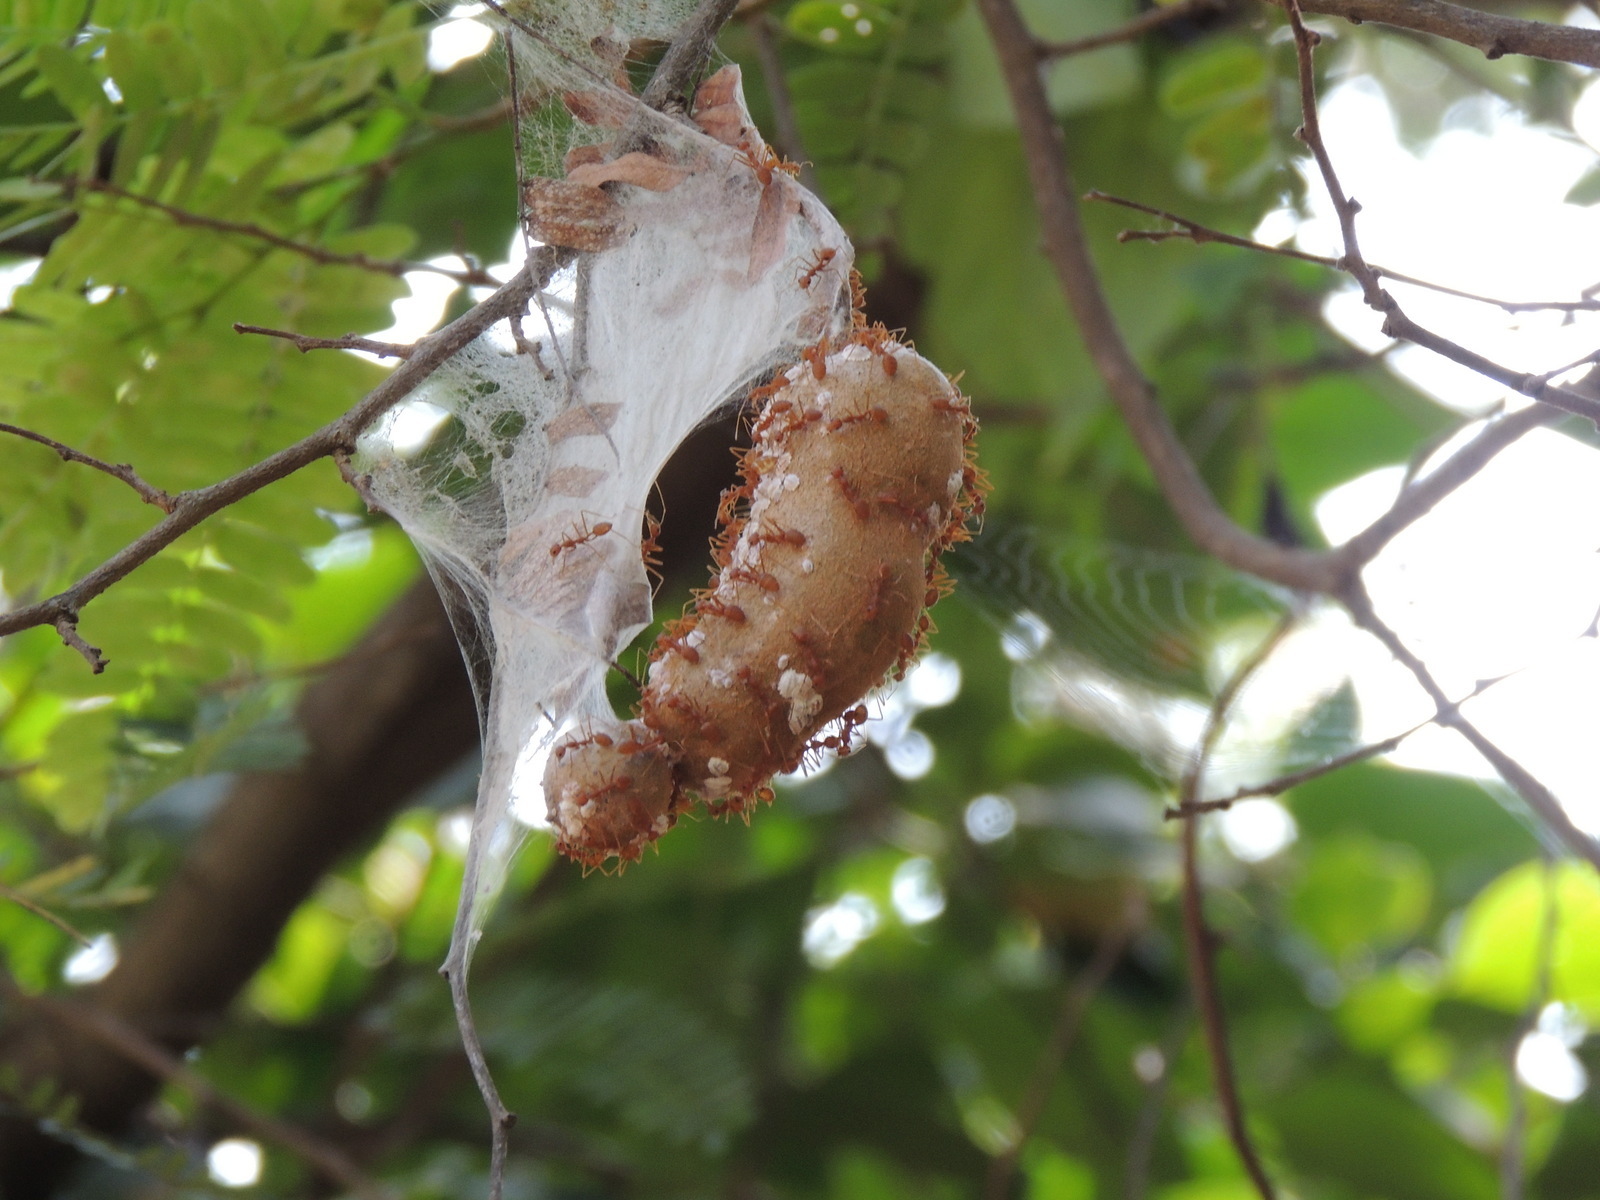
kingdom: Animalia
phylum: Arthropoda
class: Insecta
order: Hymenoptera
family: Formicidae
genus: Oecophylla
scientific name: Oecophylla smaragdina
